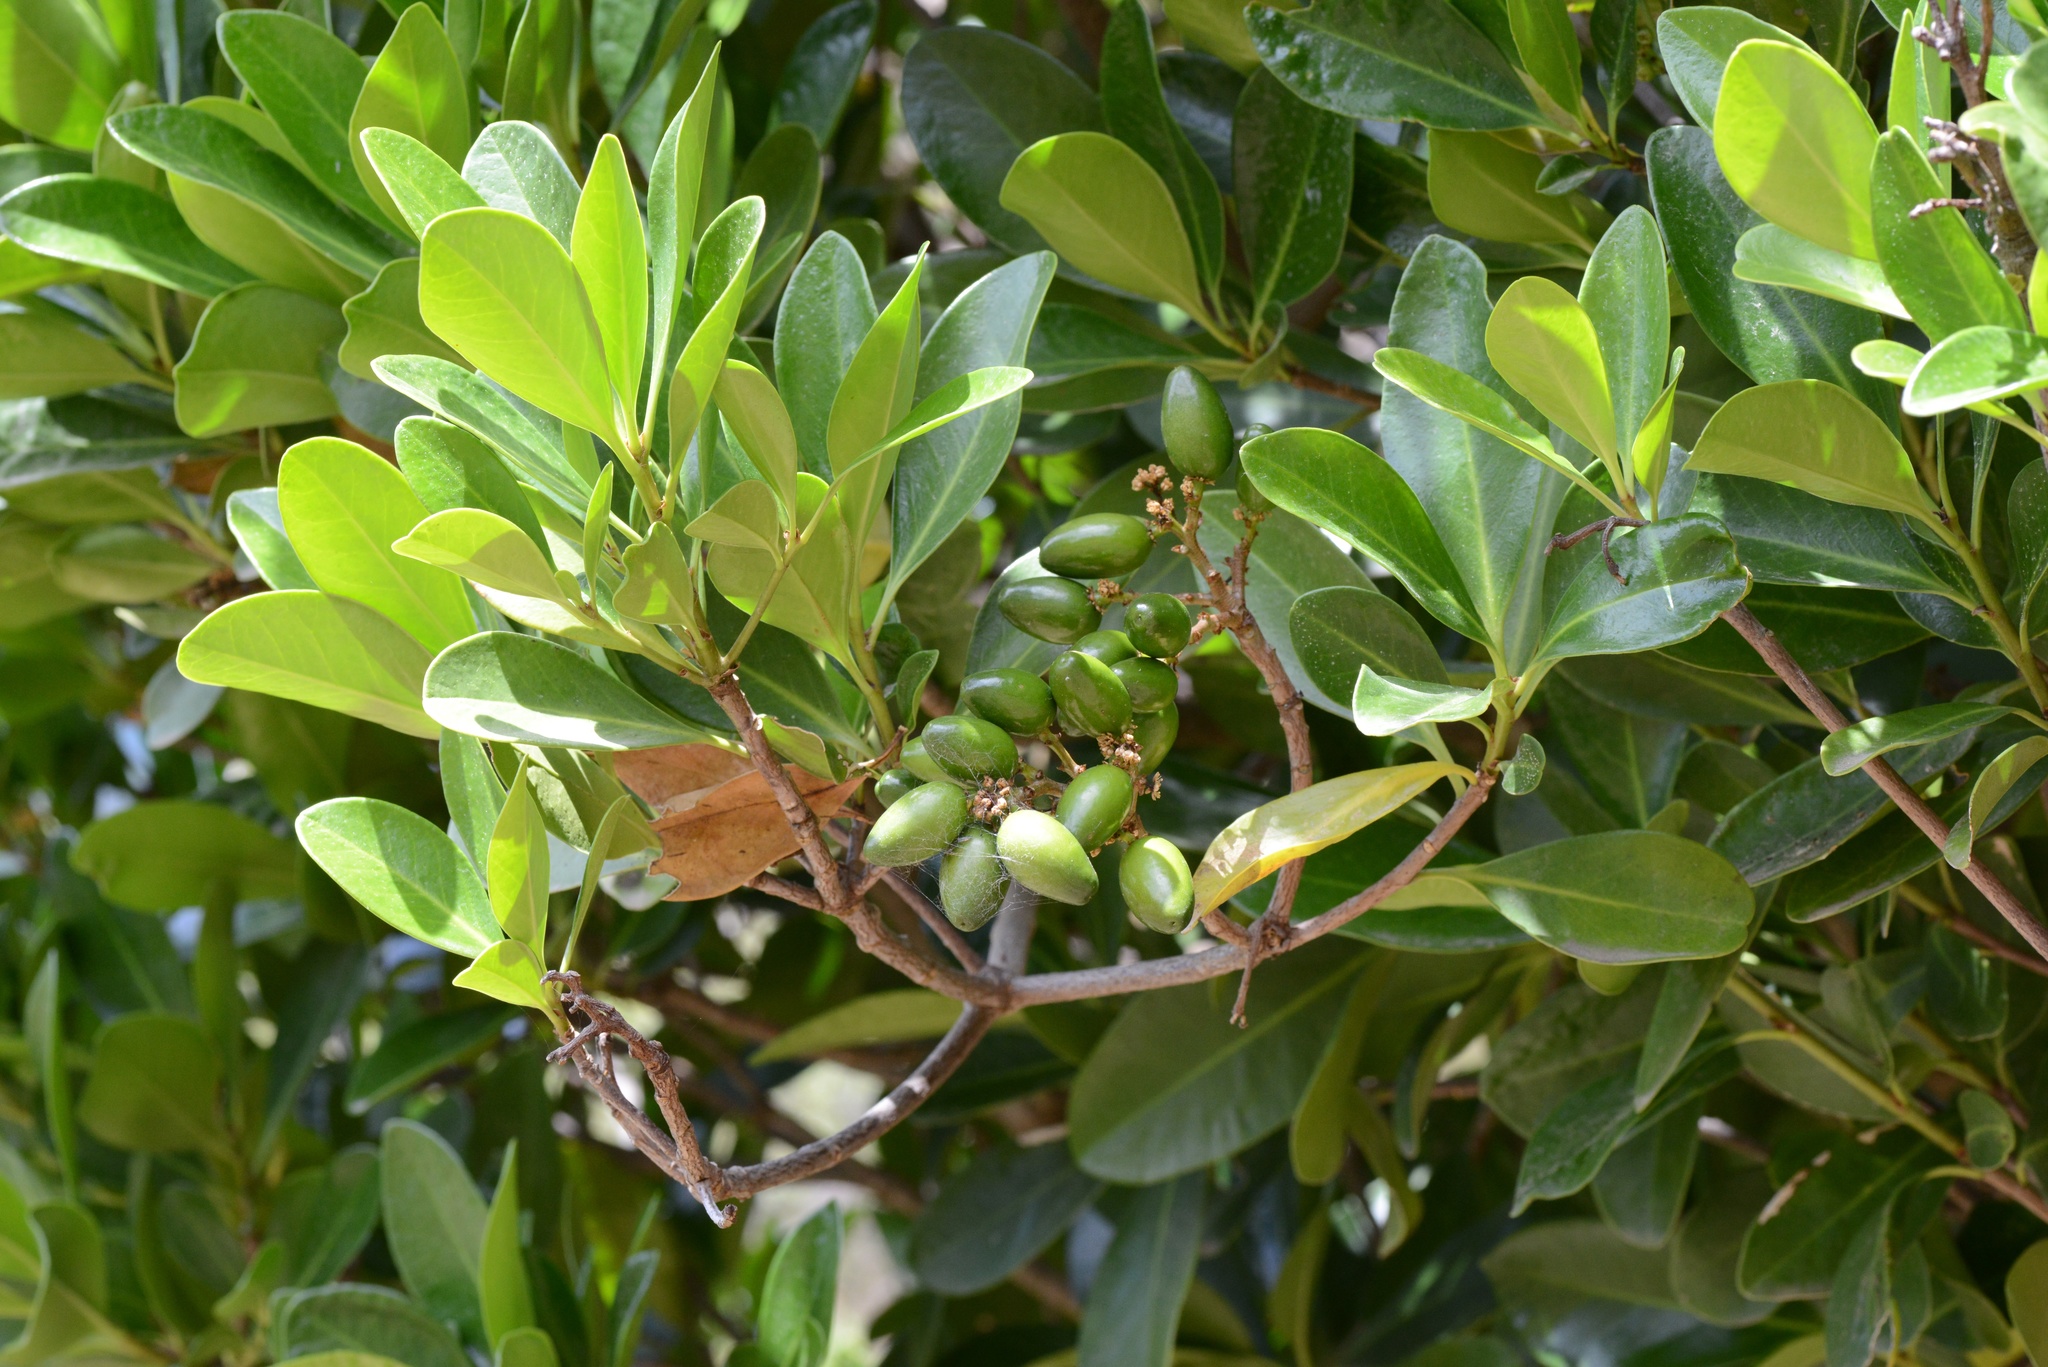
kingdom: Plantae
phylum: Tracheophyta
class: Magnoliopsida
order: Cucurbitales
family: Corynocarpaceae
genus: Corynocarpus
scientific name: Corynocarpus laevigatus
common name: New zealand laurel
